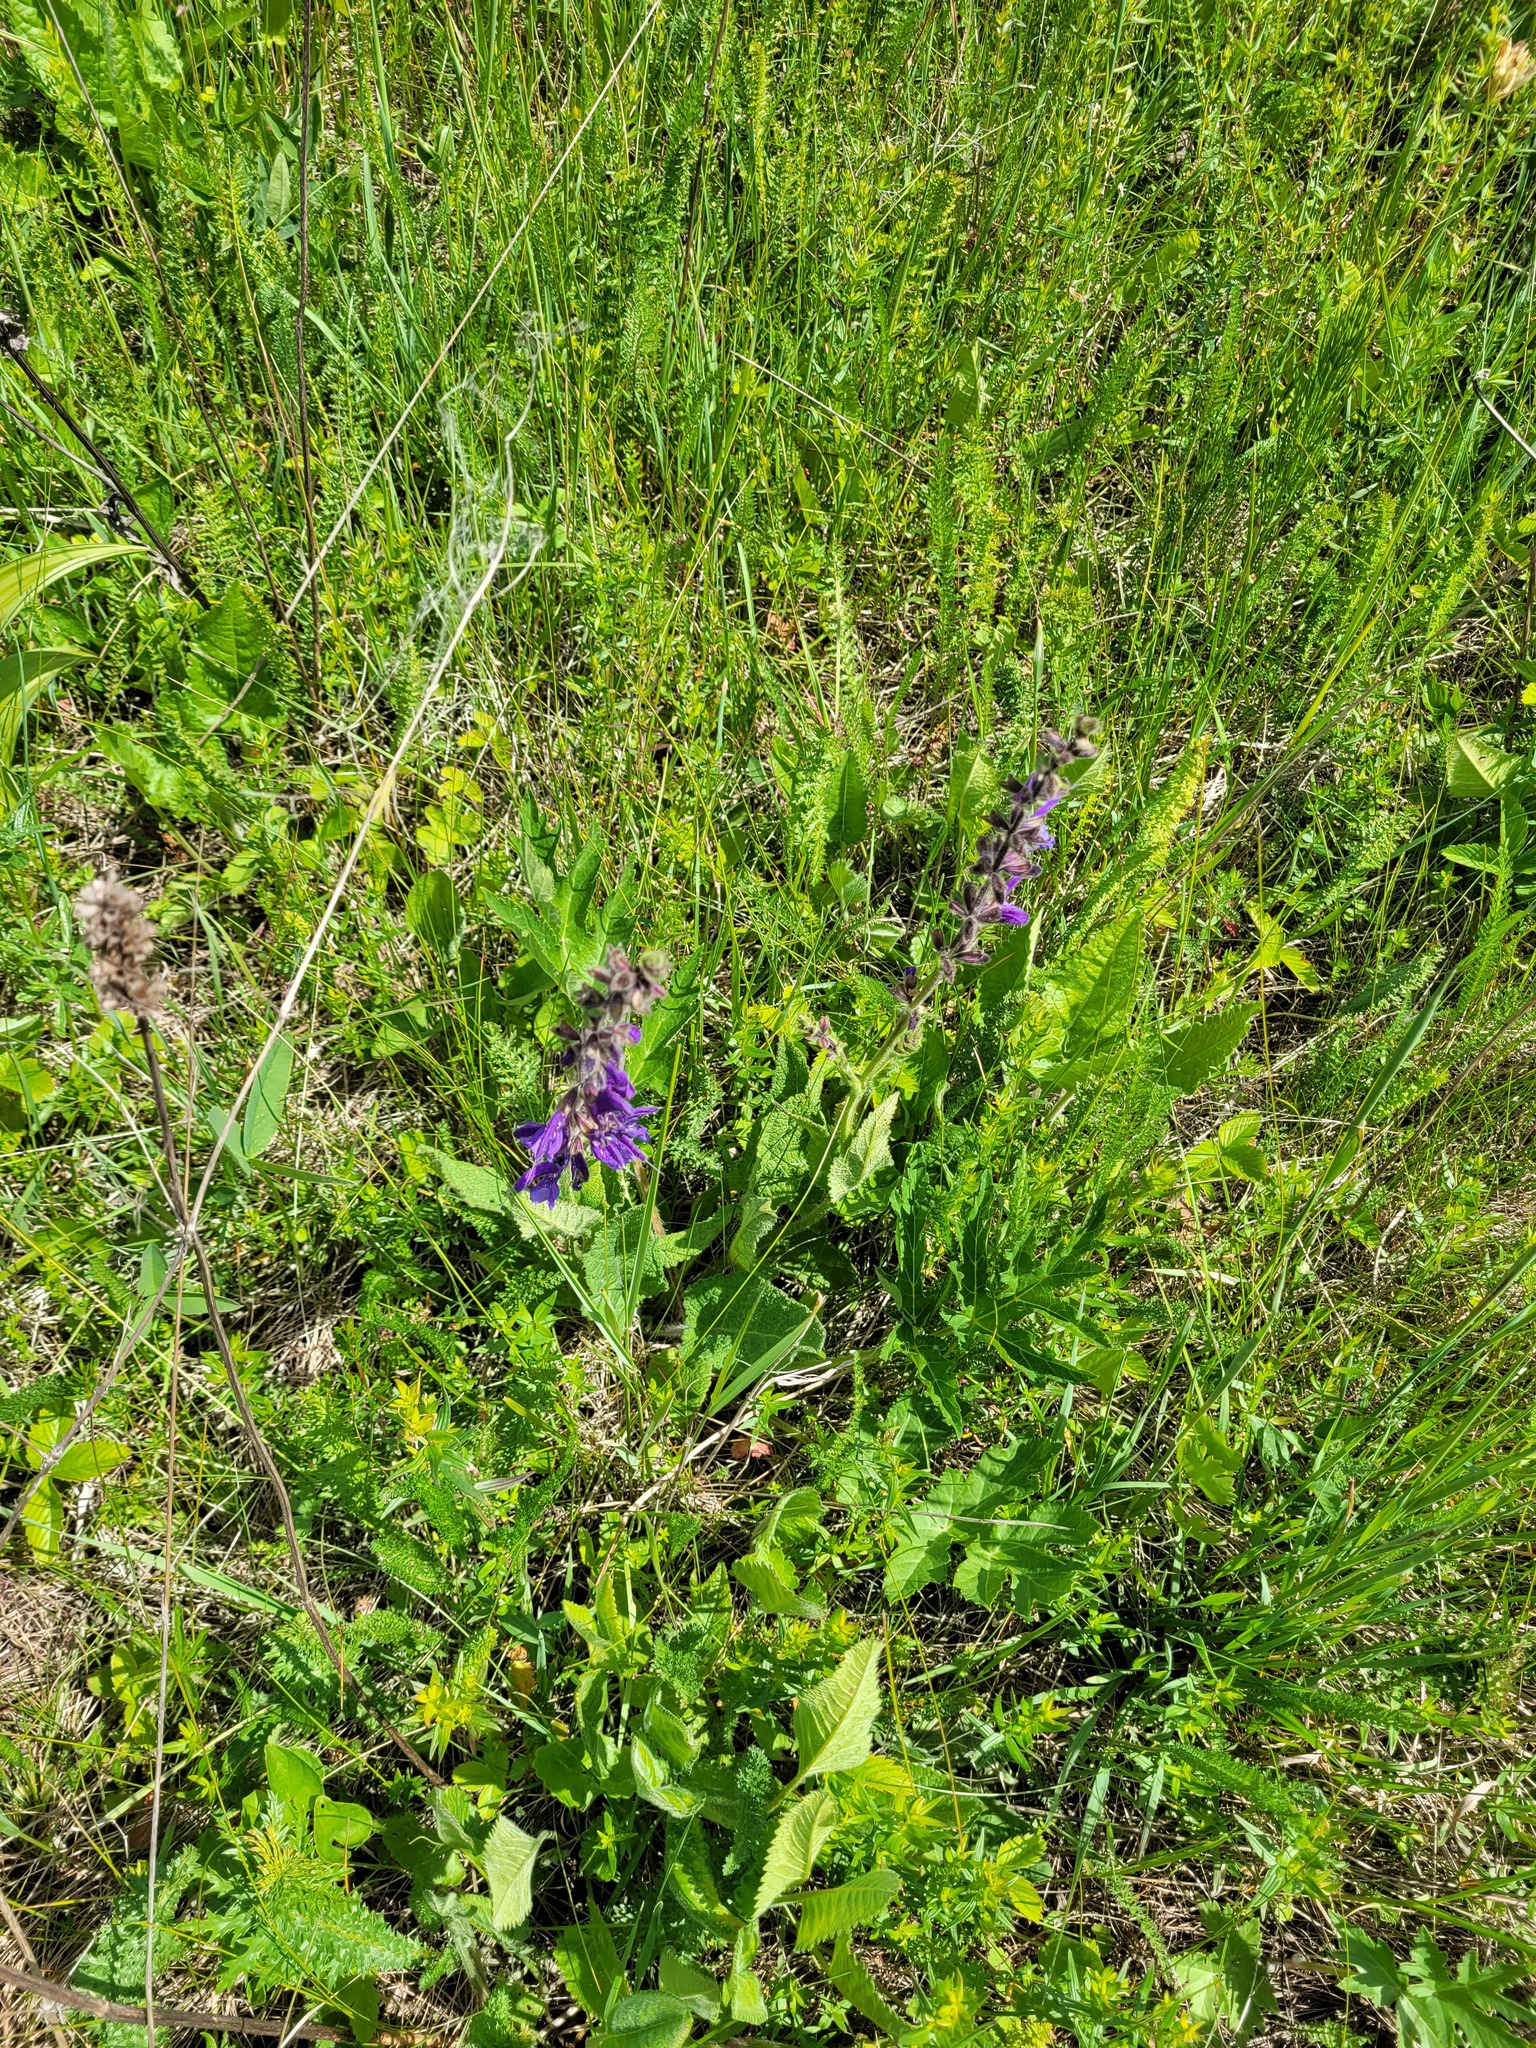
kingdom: Plantae
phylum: Tracheophyta
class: Magnoliopsida
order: Lamiales
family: Lamiaceae
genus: Salvia
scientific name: Salvia pratensis
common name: Meadow sage
